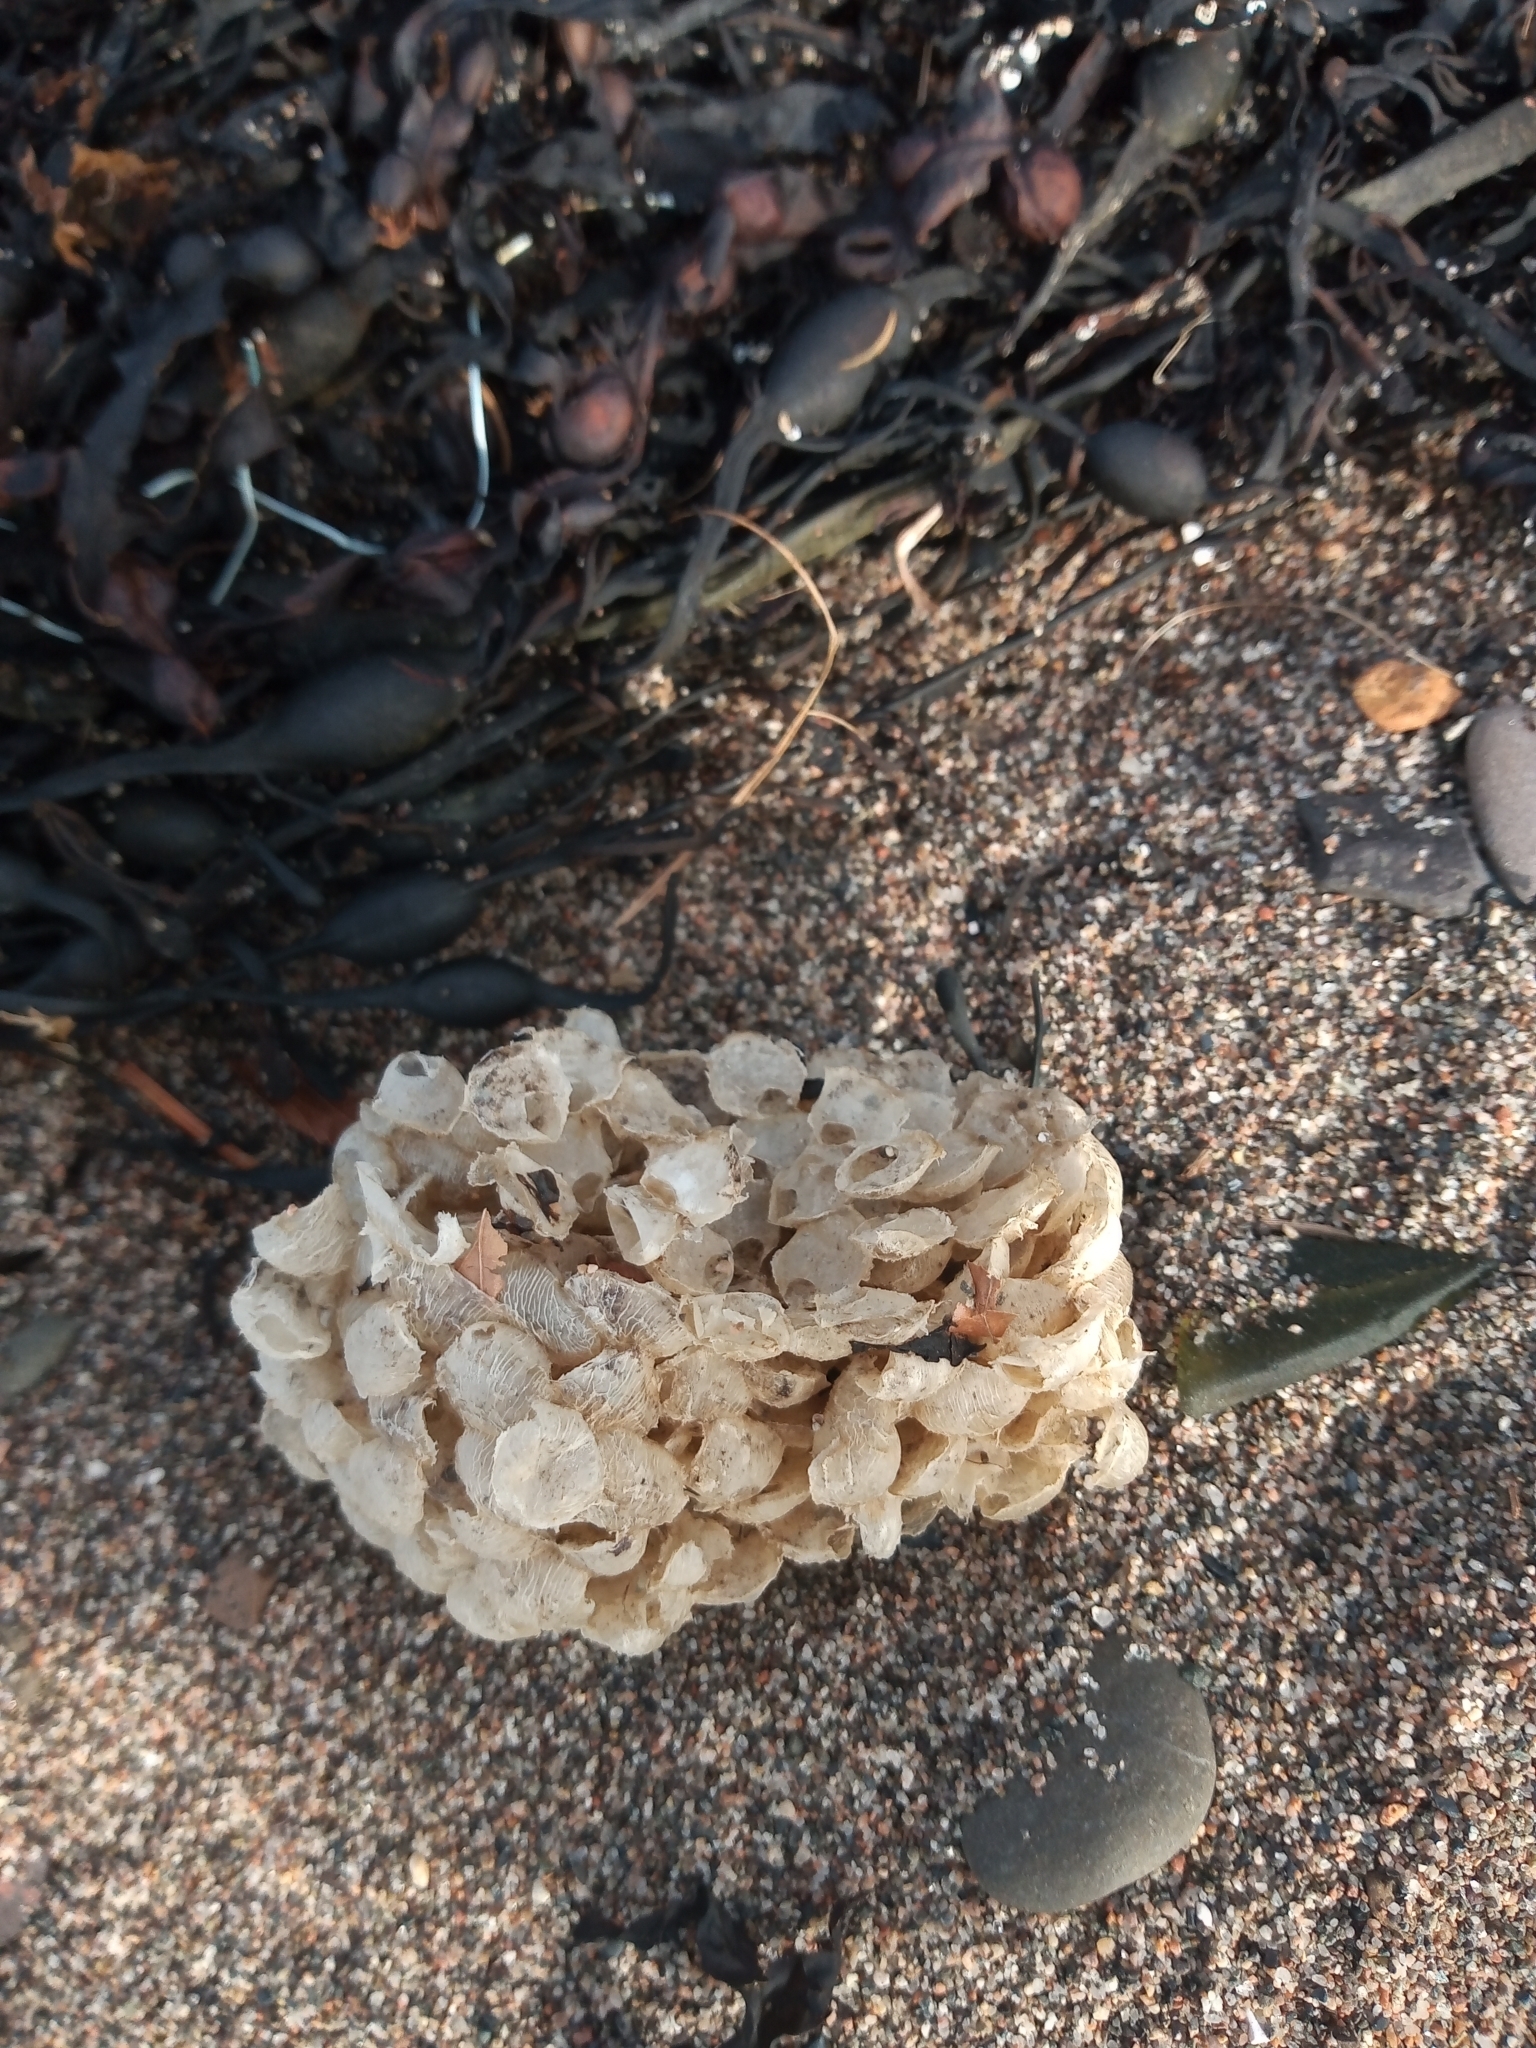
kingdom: Animalia
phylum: Mollusca
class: Gastropoda
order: Neogastropoda
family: Buccinidae
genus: Buccinum
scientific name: Buccinum undatum
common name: Common whelk
